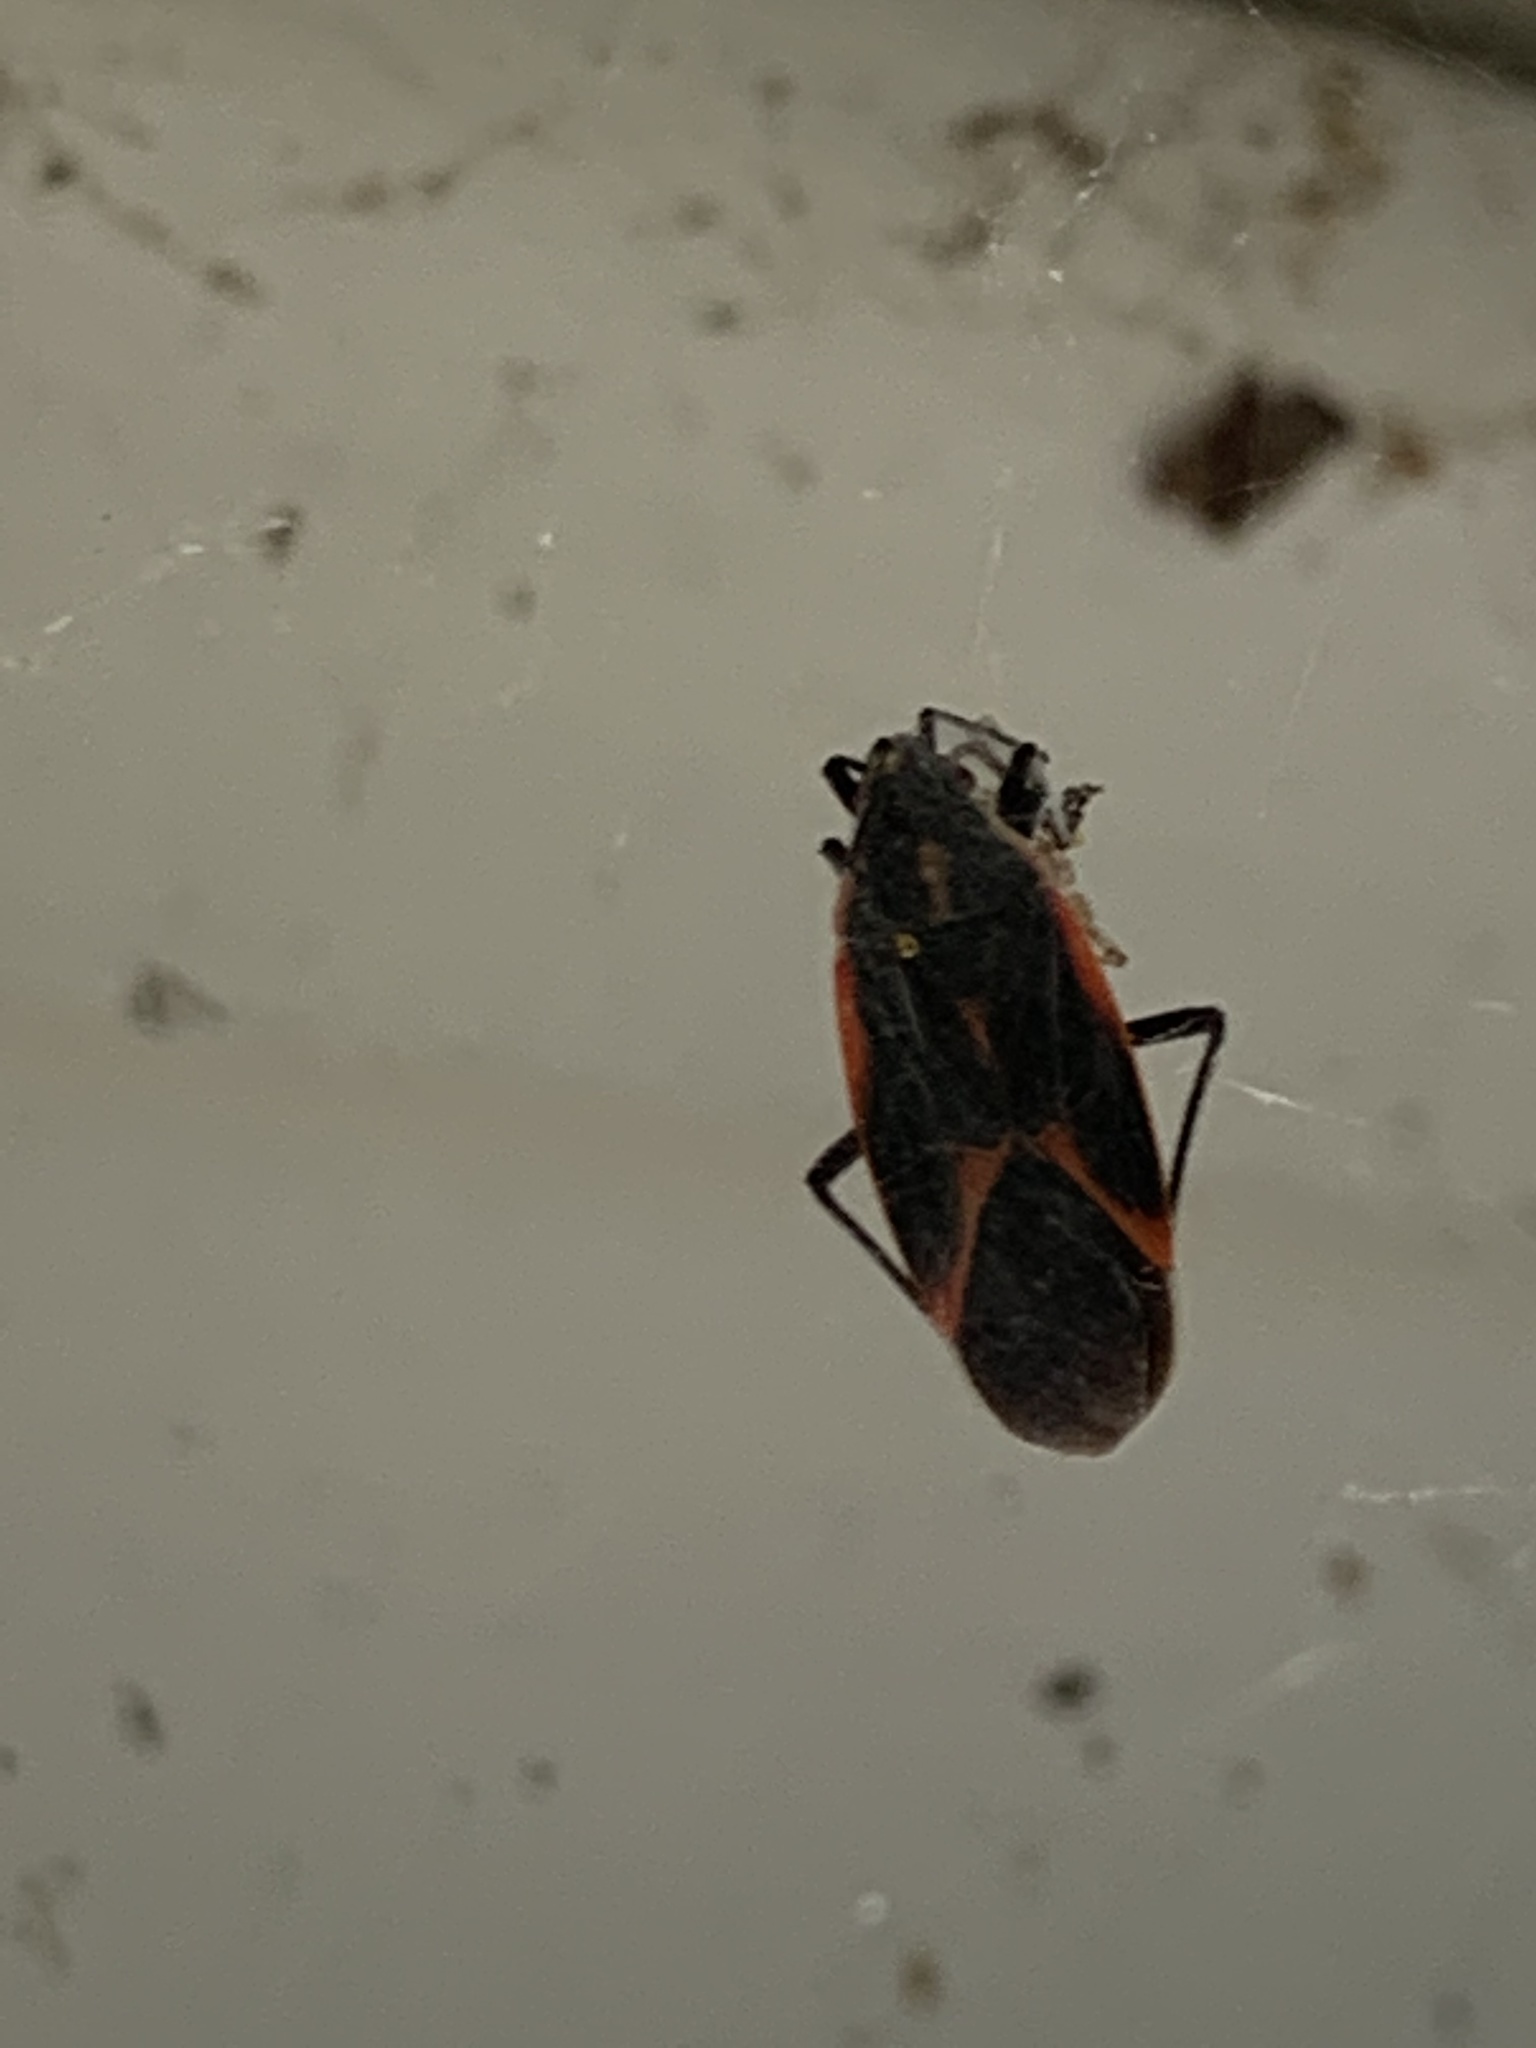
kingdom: Animalia
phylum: Arthropoda
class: Insecta
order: Hemiptera
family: Rhopalidae
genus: Boisea
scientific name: Boisea trivittata
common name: Boxelder bug
